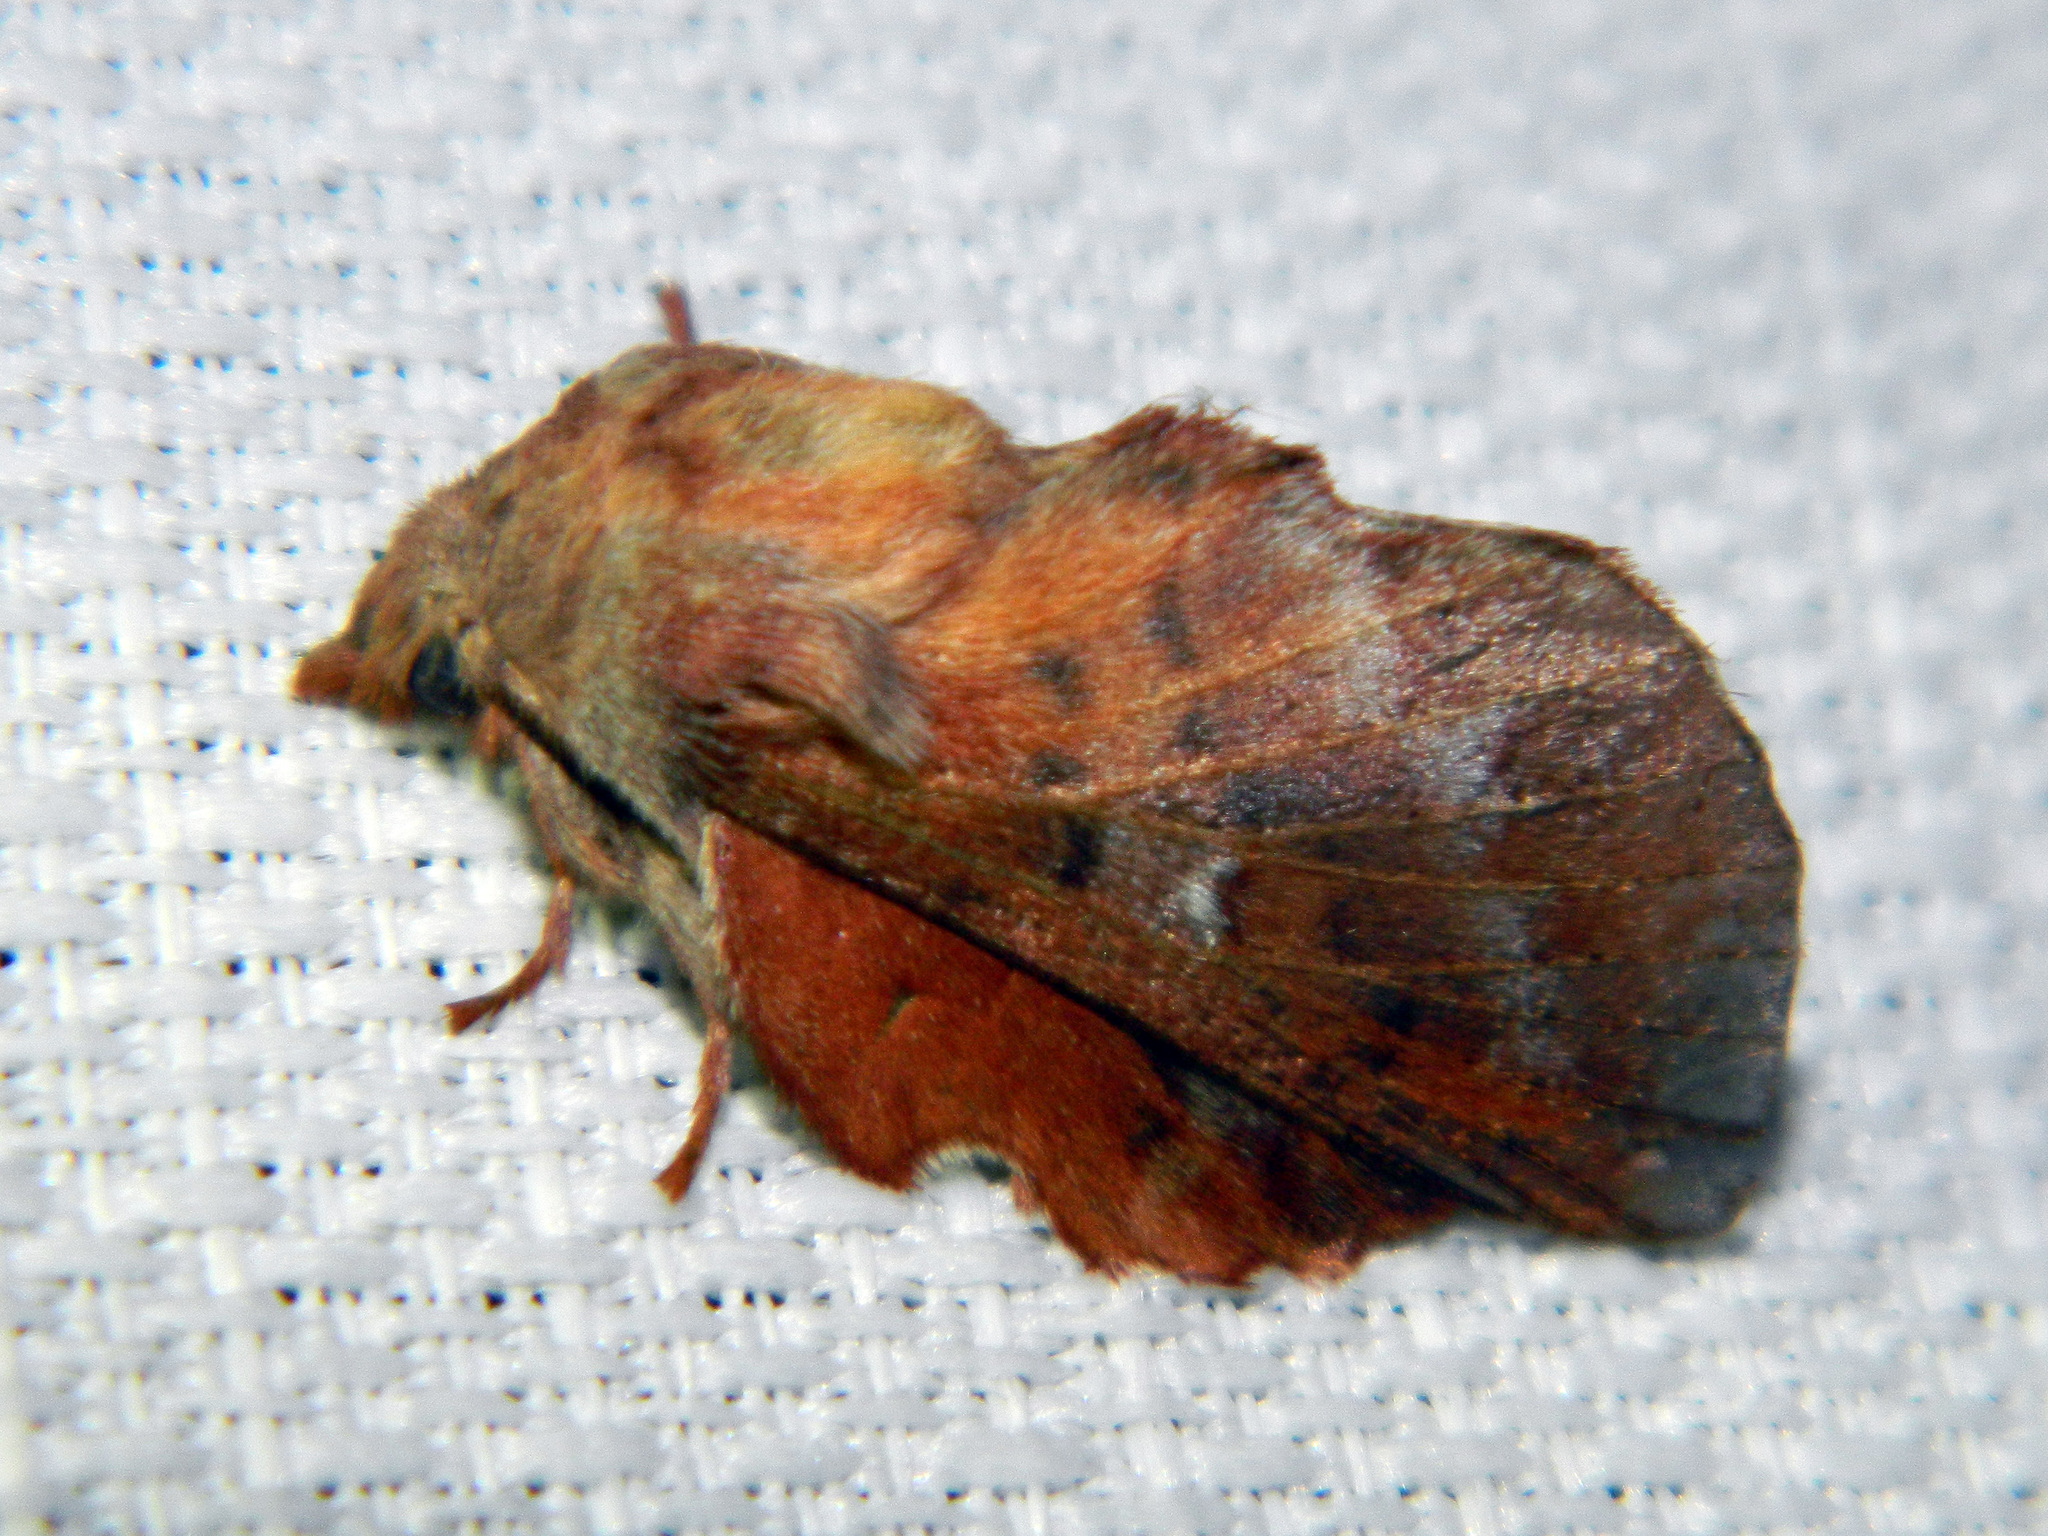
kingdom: Animalia
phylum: Arthropoda
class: Insecta
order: Lepidoptera
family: Lasiocampidae
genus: Phyllodesma
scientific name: Phyllodesma americana
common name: American lappet moth
